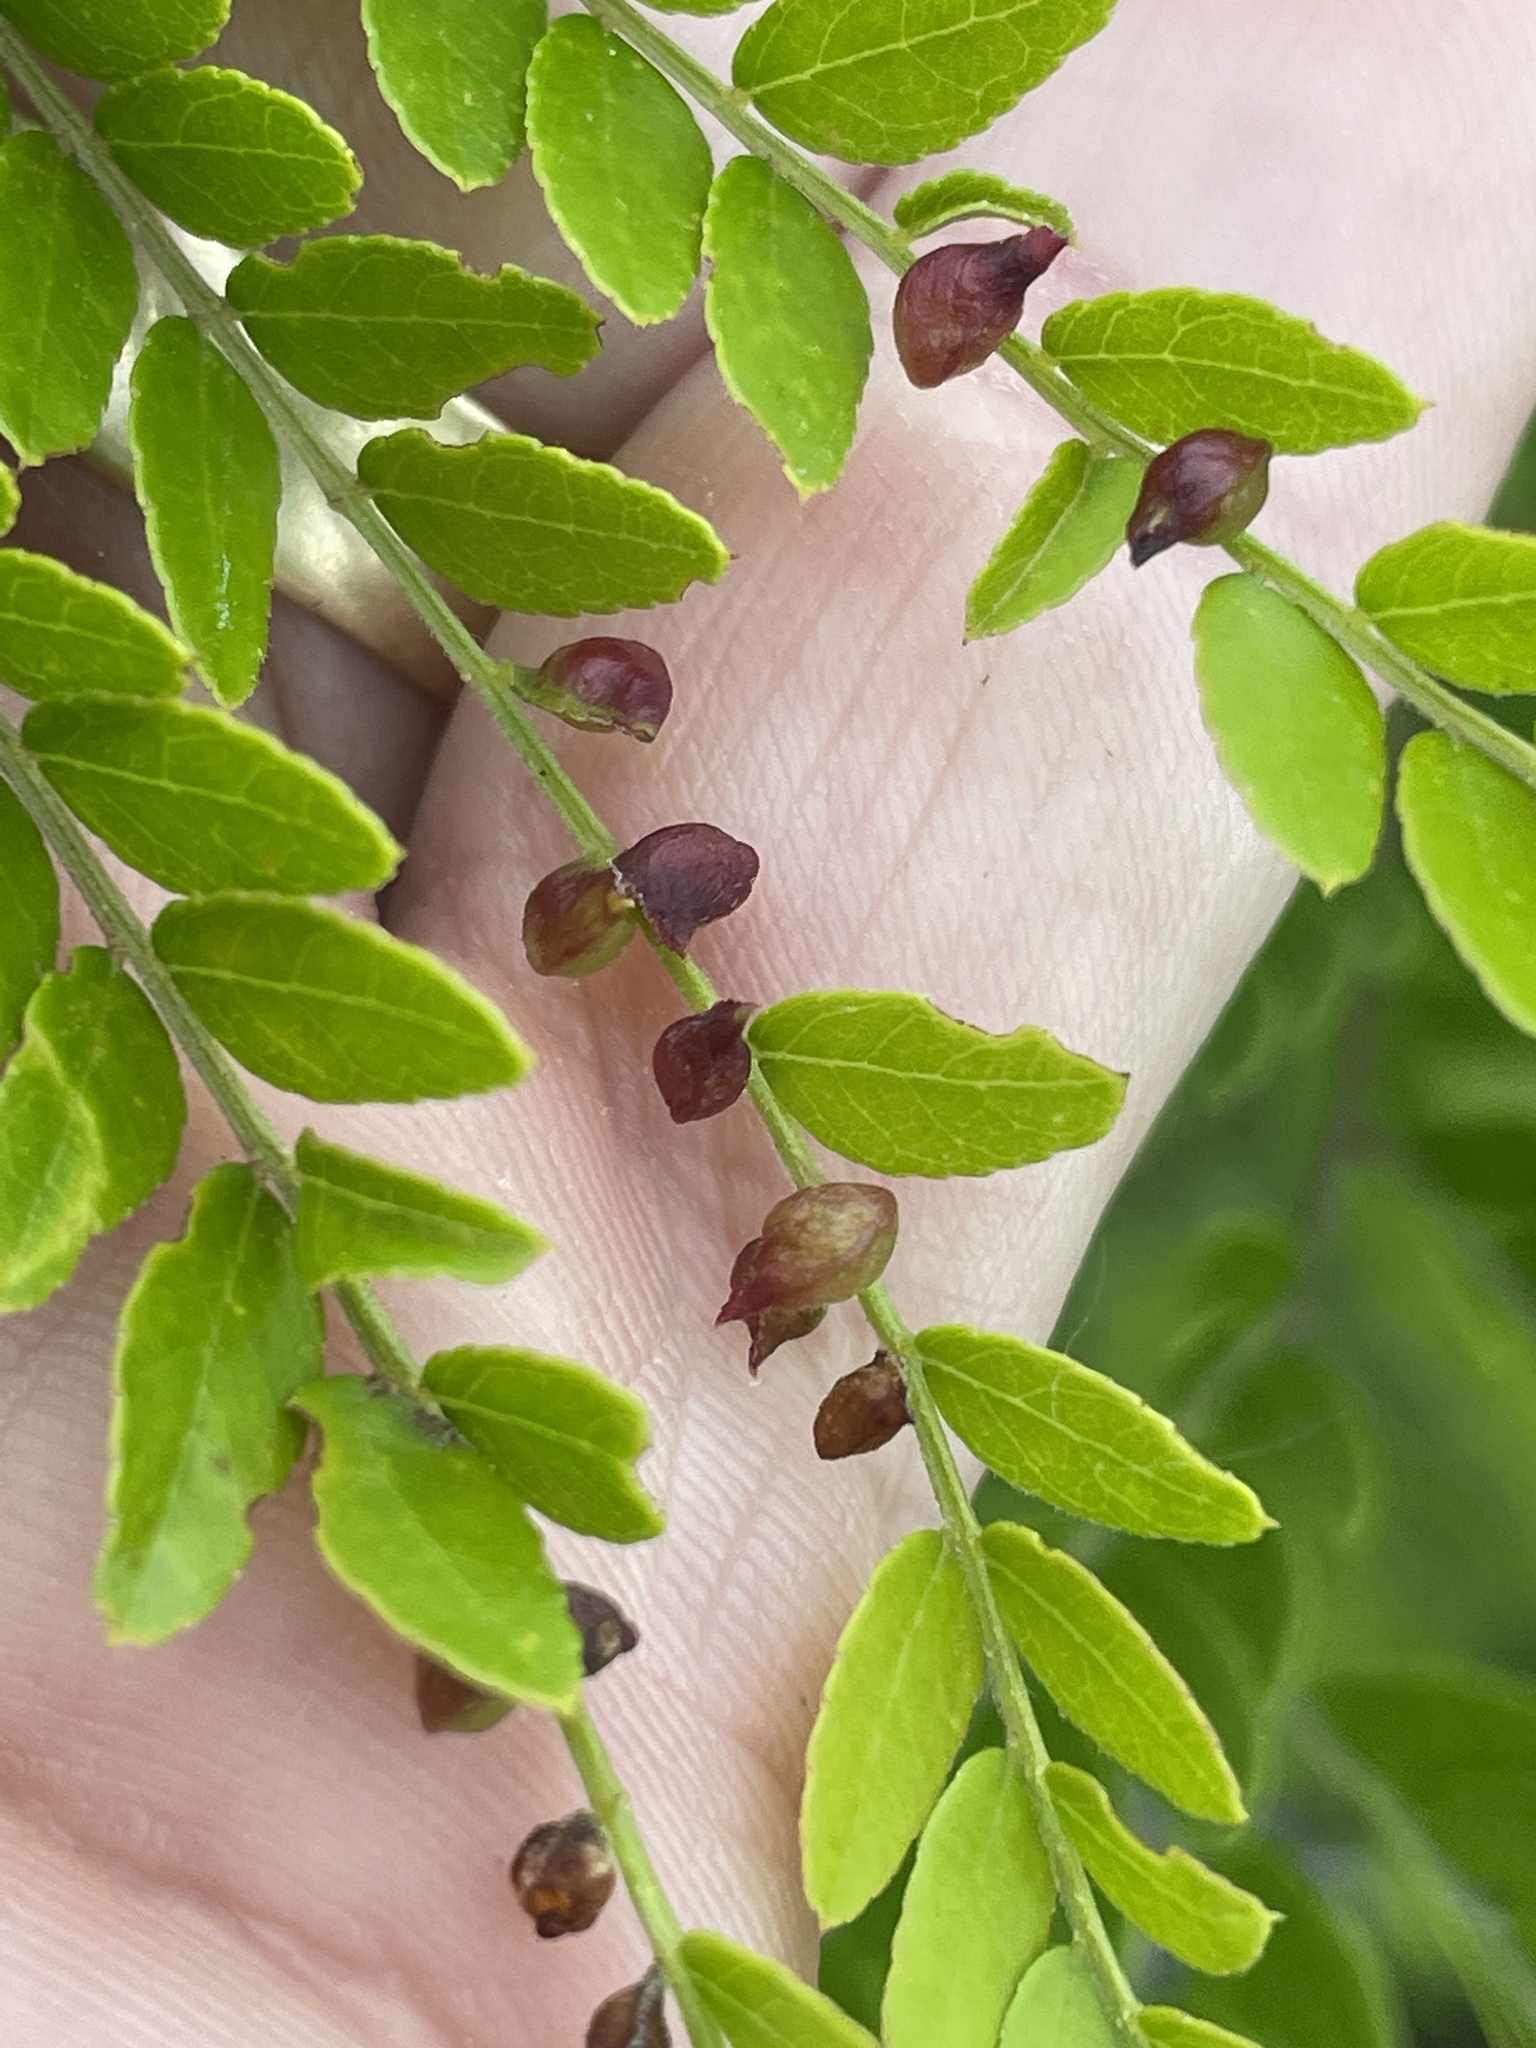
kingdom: Animalia
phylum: Arthropoda
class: Insecta
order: Diptera
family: Cecidomyiidae
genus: Dasineura
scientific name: Dasineura gleditchiae
